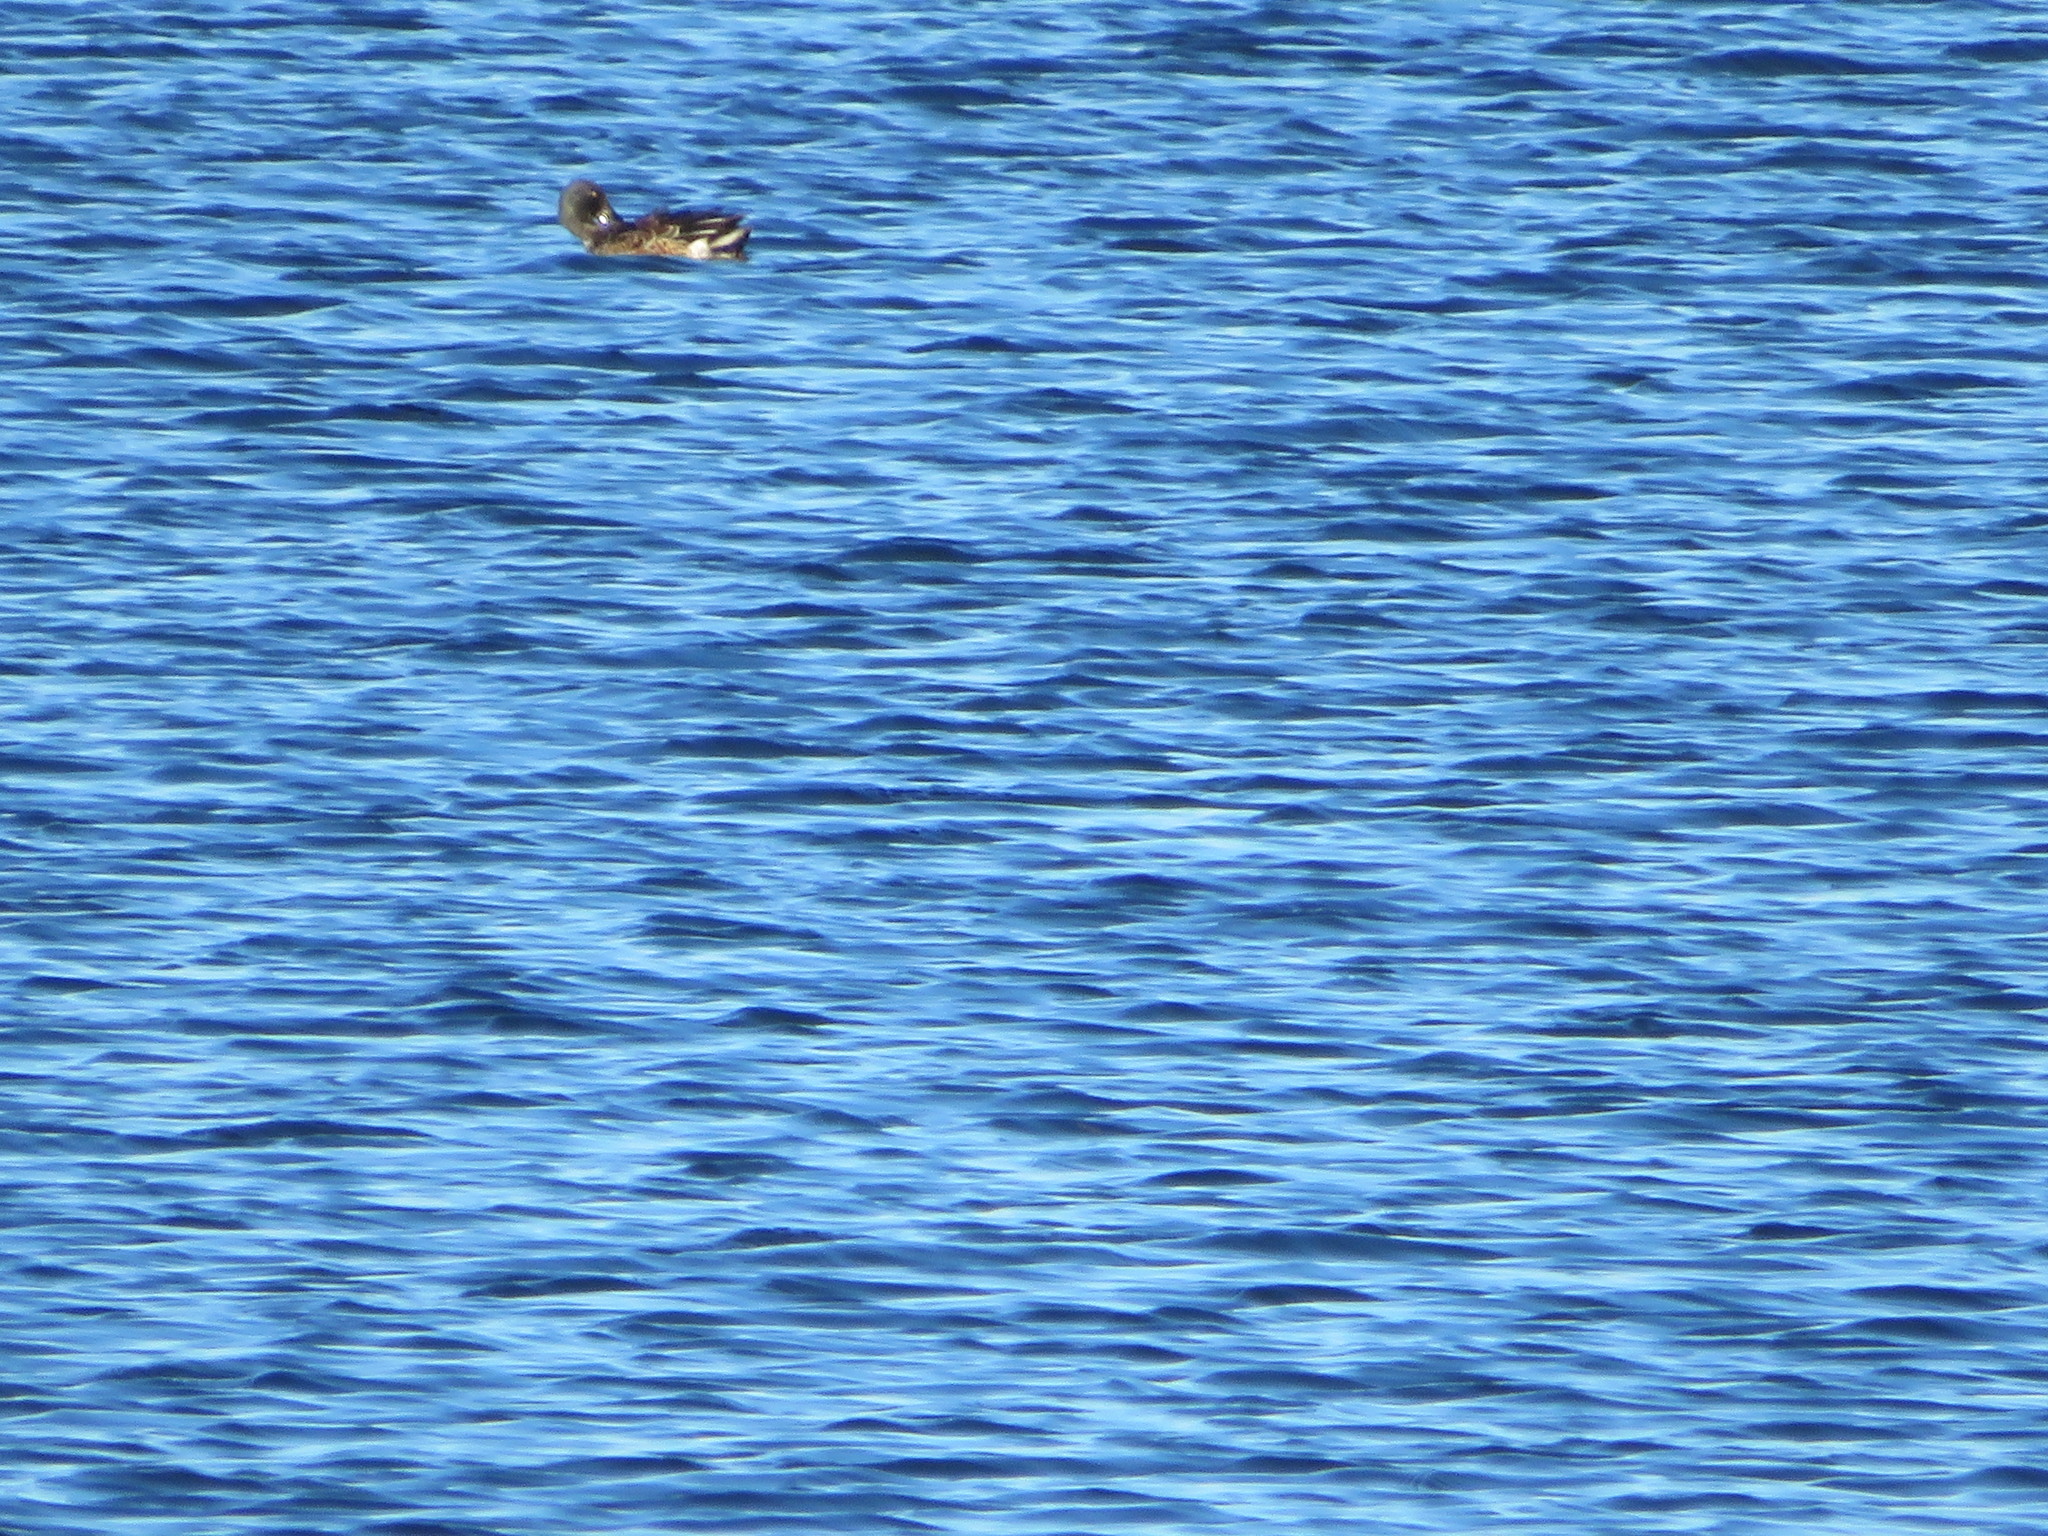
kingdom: Animalia
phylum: Chordata
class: Aves
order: Anseriformes
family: Anatidae
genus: Spatula
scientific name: Spatula clypeata
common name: Northern shoveler
